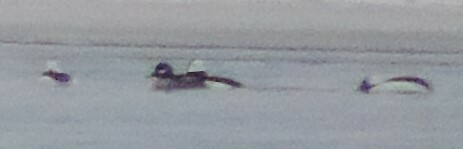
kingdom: Animalia
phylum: Chordata
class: Aves
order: Anseriformes
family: Anatidae
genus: Bucephala
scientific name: Bucephala albeola
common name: Bufflehead
